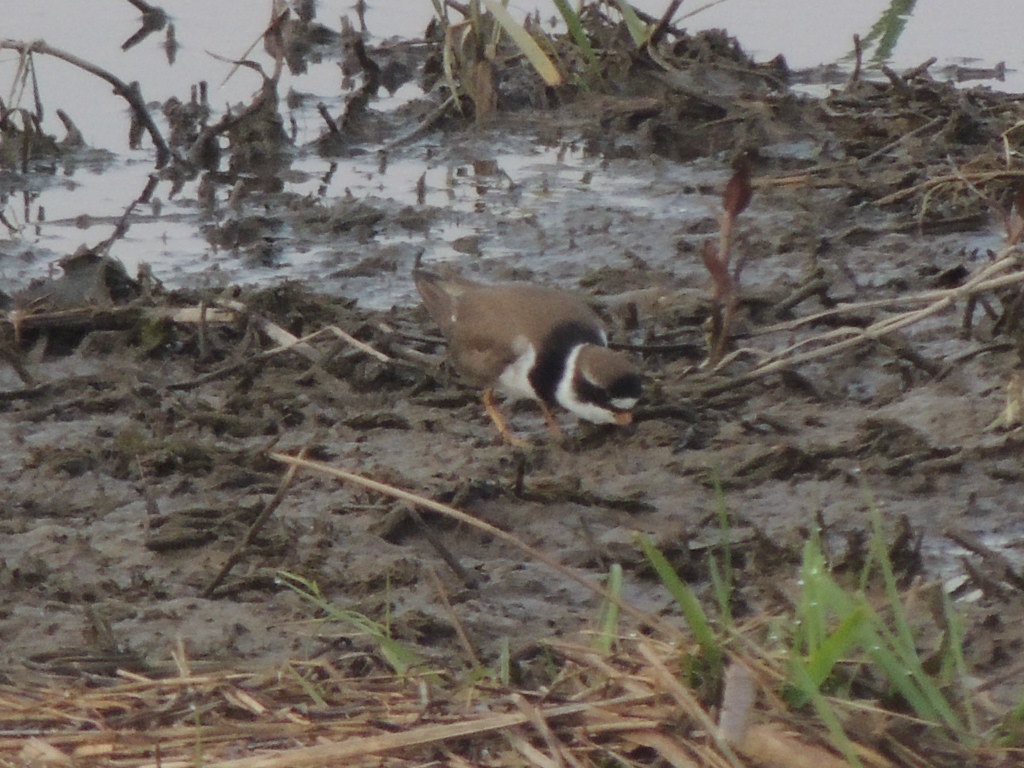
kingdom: Animalia
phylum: Chordata
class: Aves
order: Charadriiformes
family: Charadriidae
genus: Charadrius
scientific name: Charadrius semipalmatus
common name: Semipalmated plover
